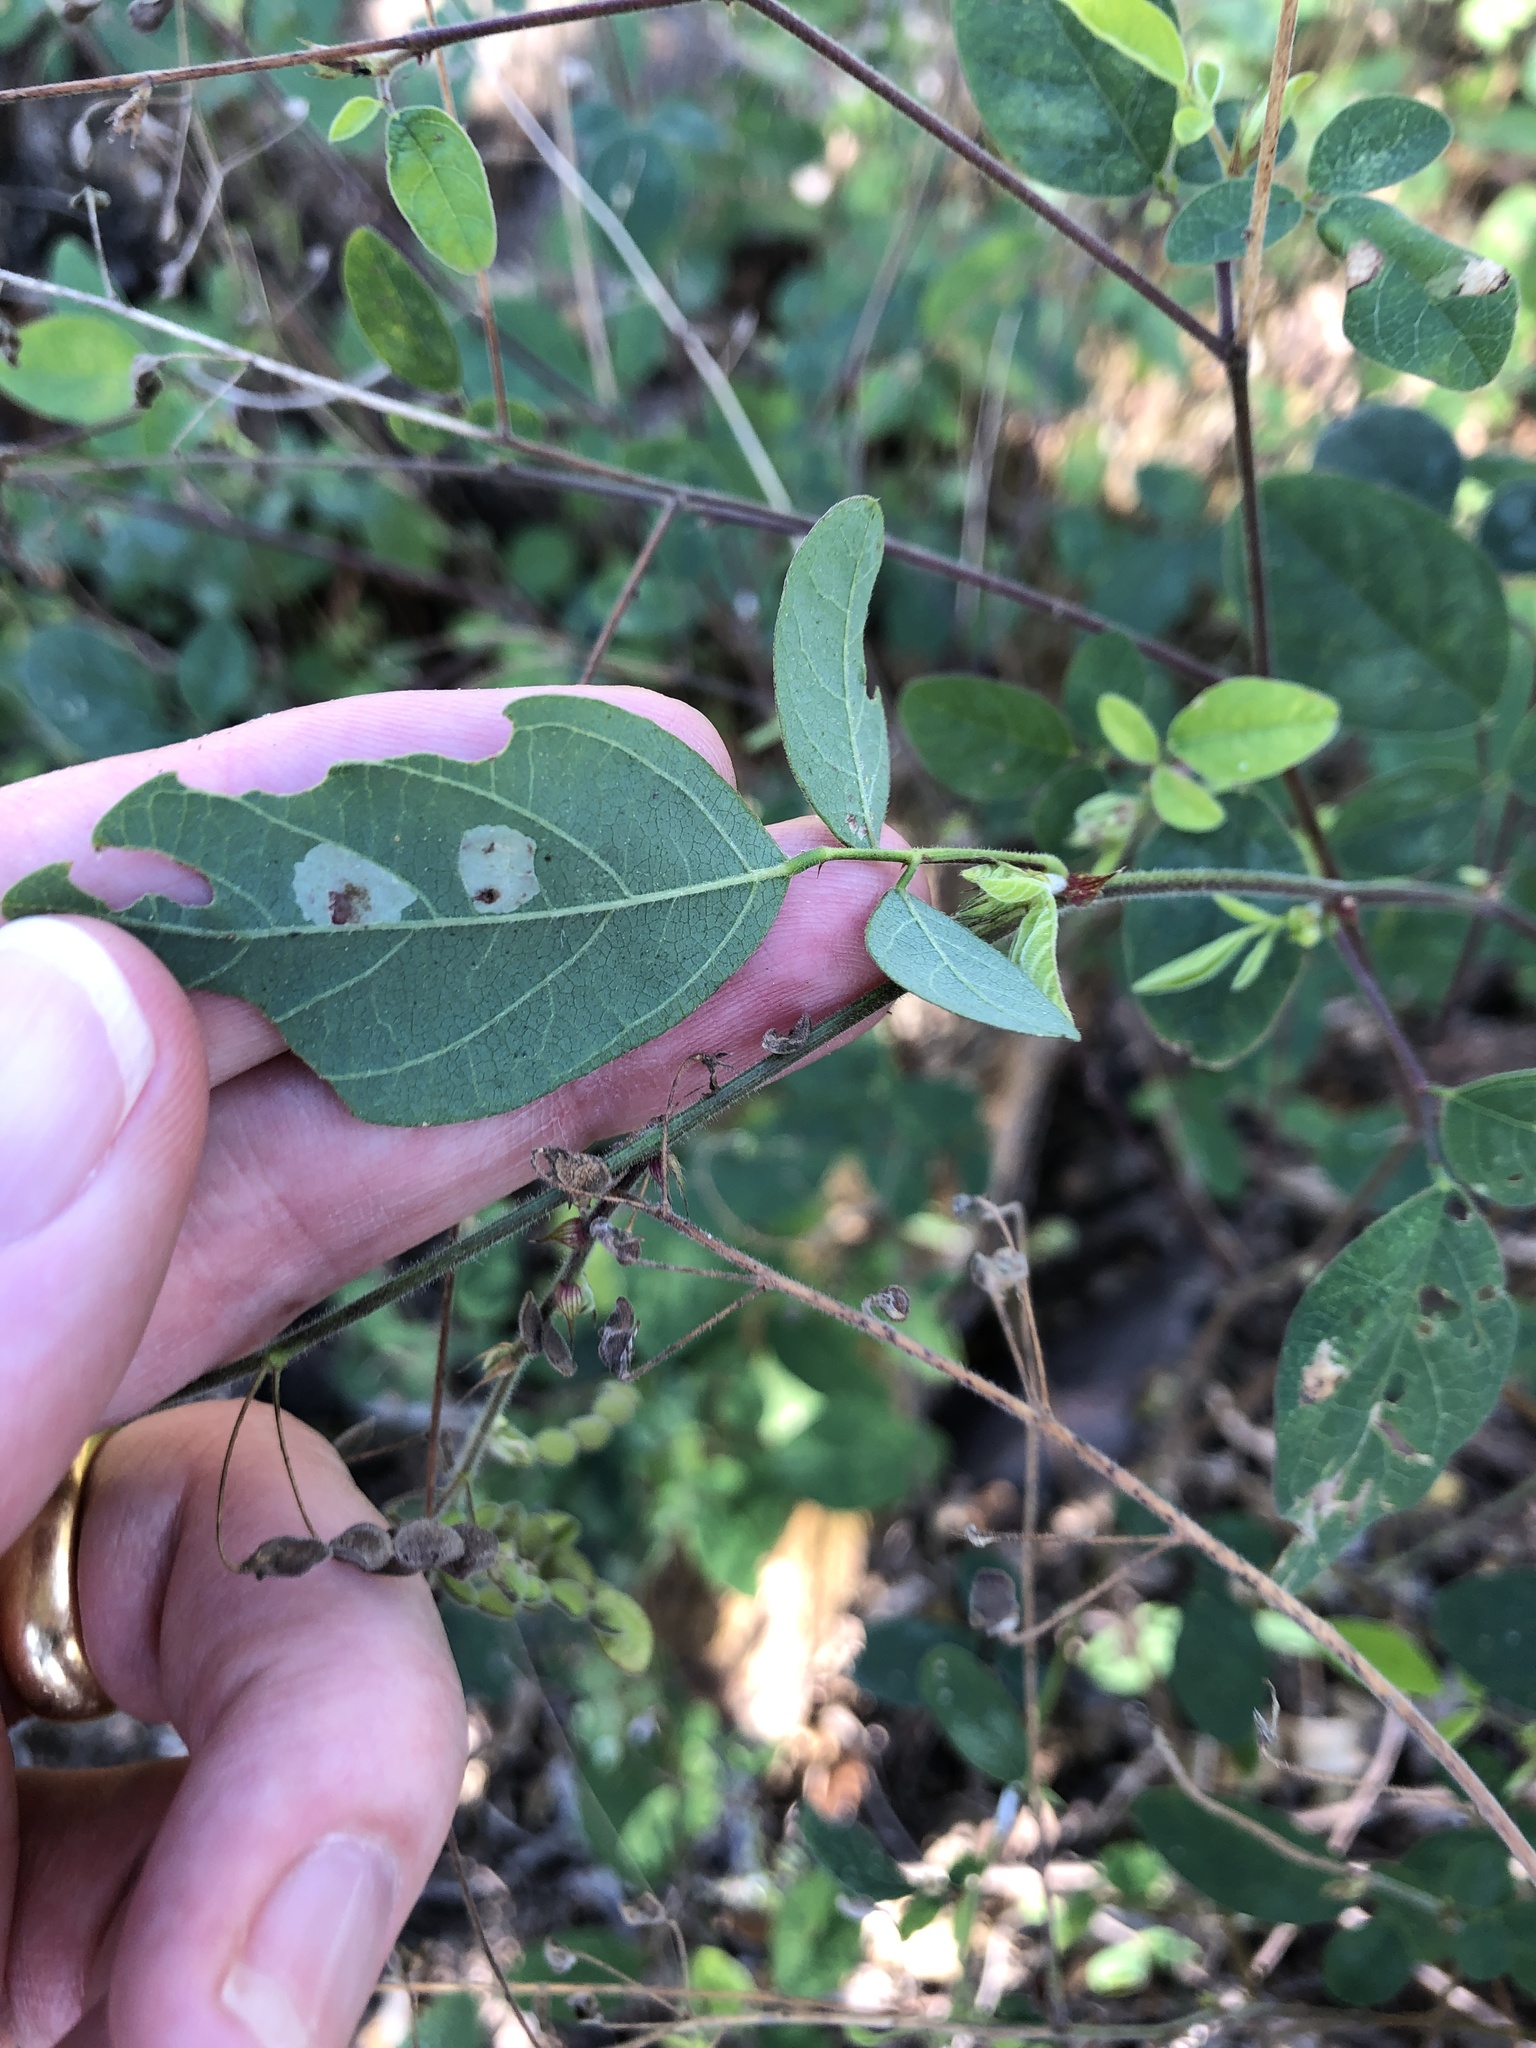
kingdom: Plantae
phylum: Tracheophyta
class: Magnoliopsida
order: Fabales
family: Fabaceae
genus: Desmodium
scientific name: Desmodium tortuosum
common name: Dixie ticktrefoil
